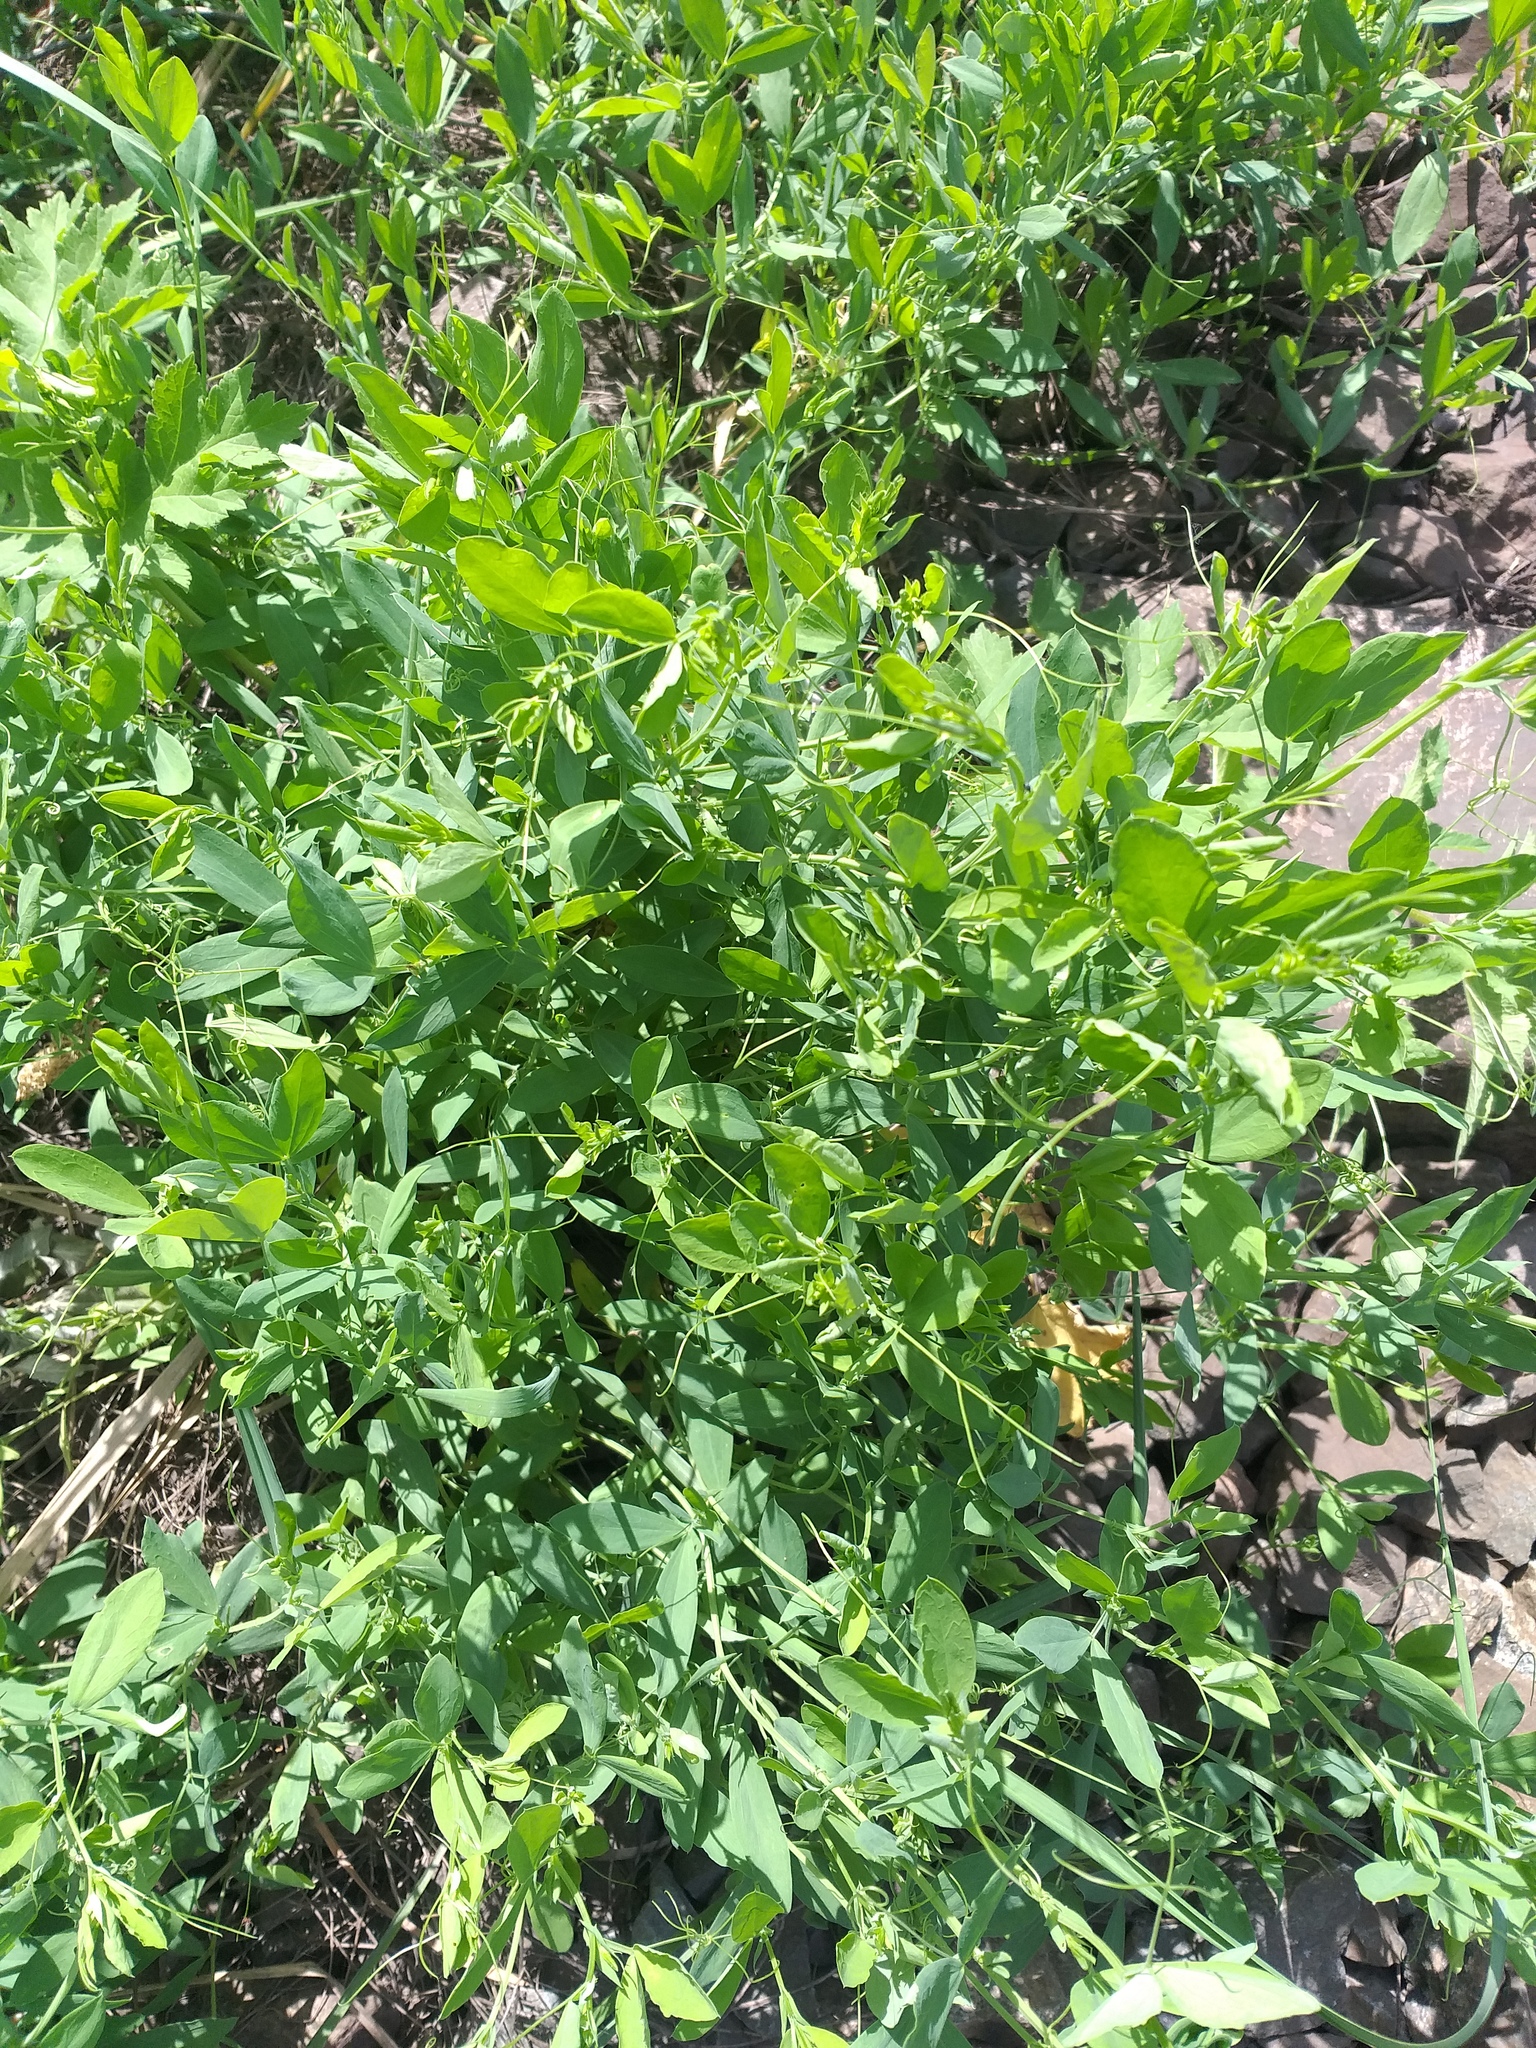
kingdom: Plantae
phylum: Tracheophyta
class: Magnoliopsida
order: Fabales
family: Fabaceae
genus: Lathyrus
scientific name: Lathyrus tuberosus
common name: Tuberous pea
